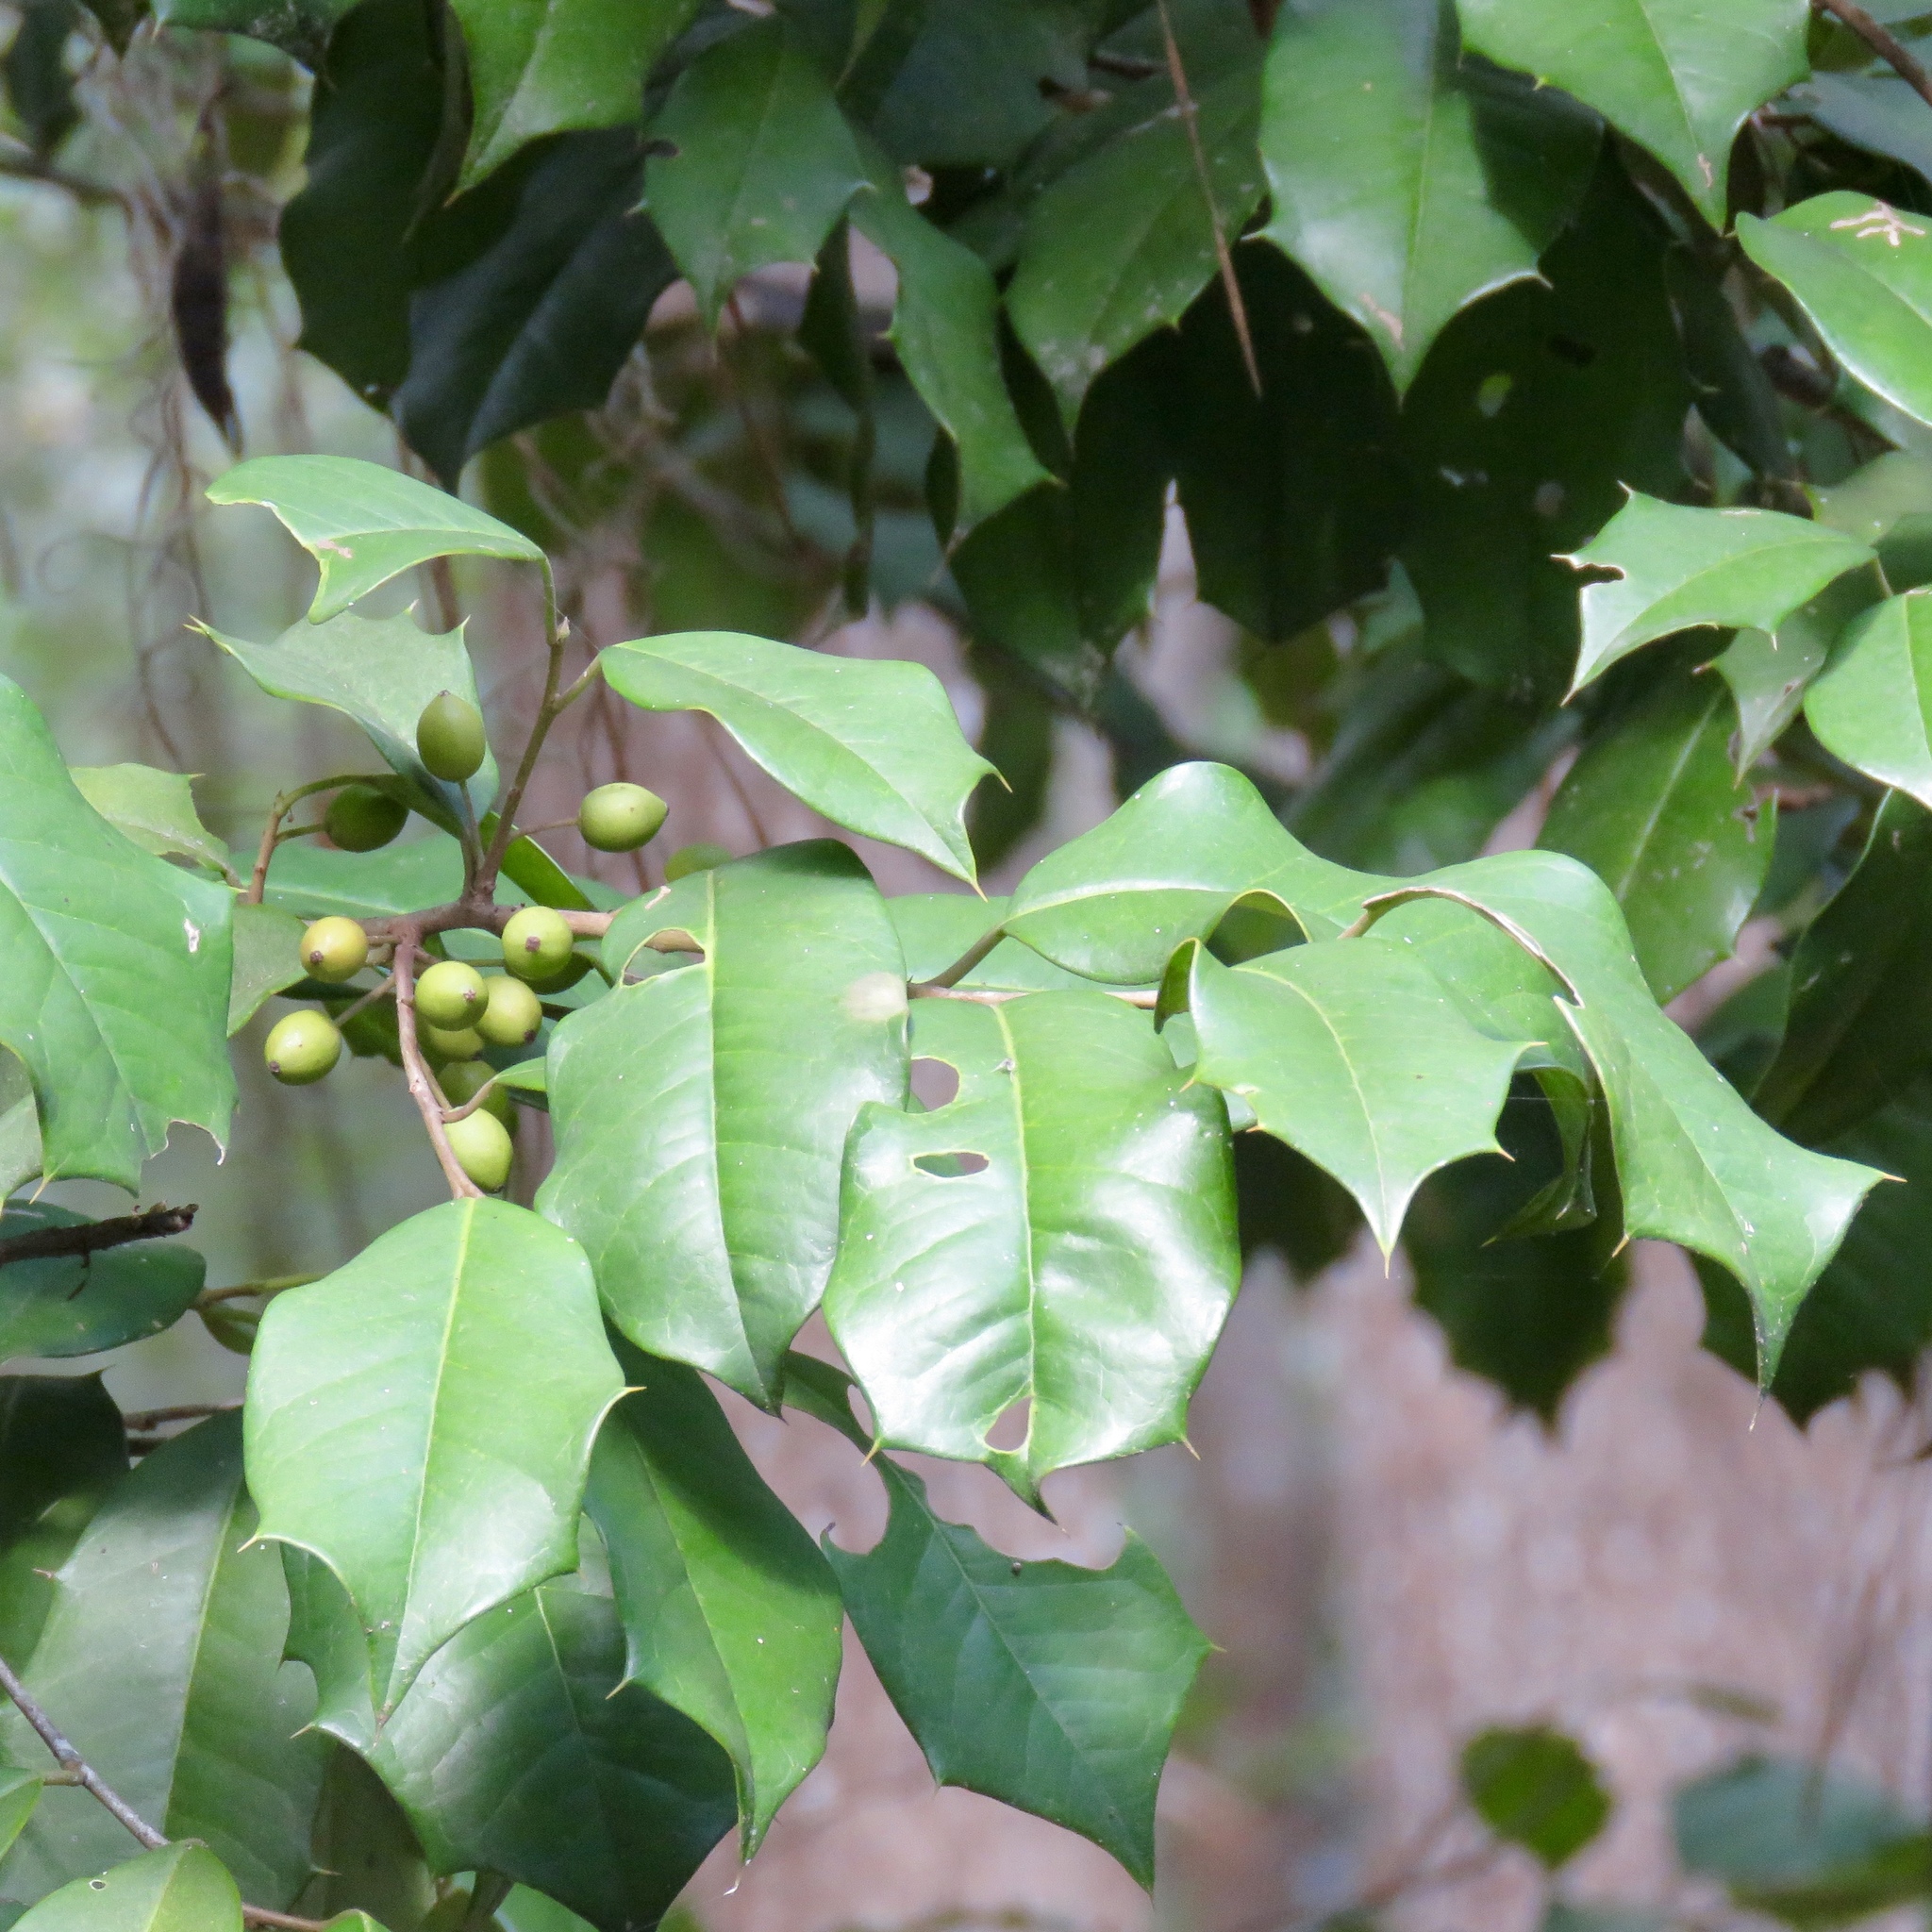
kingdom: Plantae
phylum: Tracheophyta
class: Magnoliopsida
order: Aquifoliales
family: Aquifoliaceae
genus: Ilex
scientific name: Ilex opaca
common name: American holly
